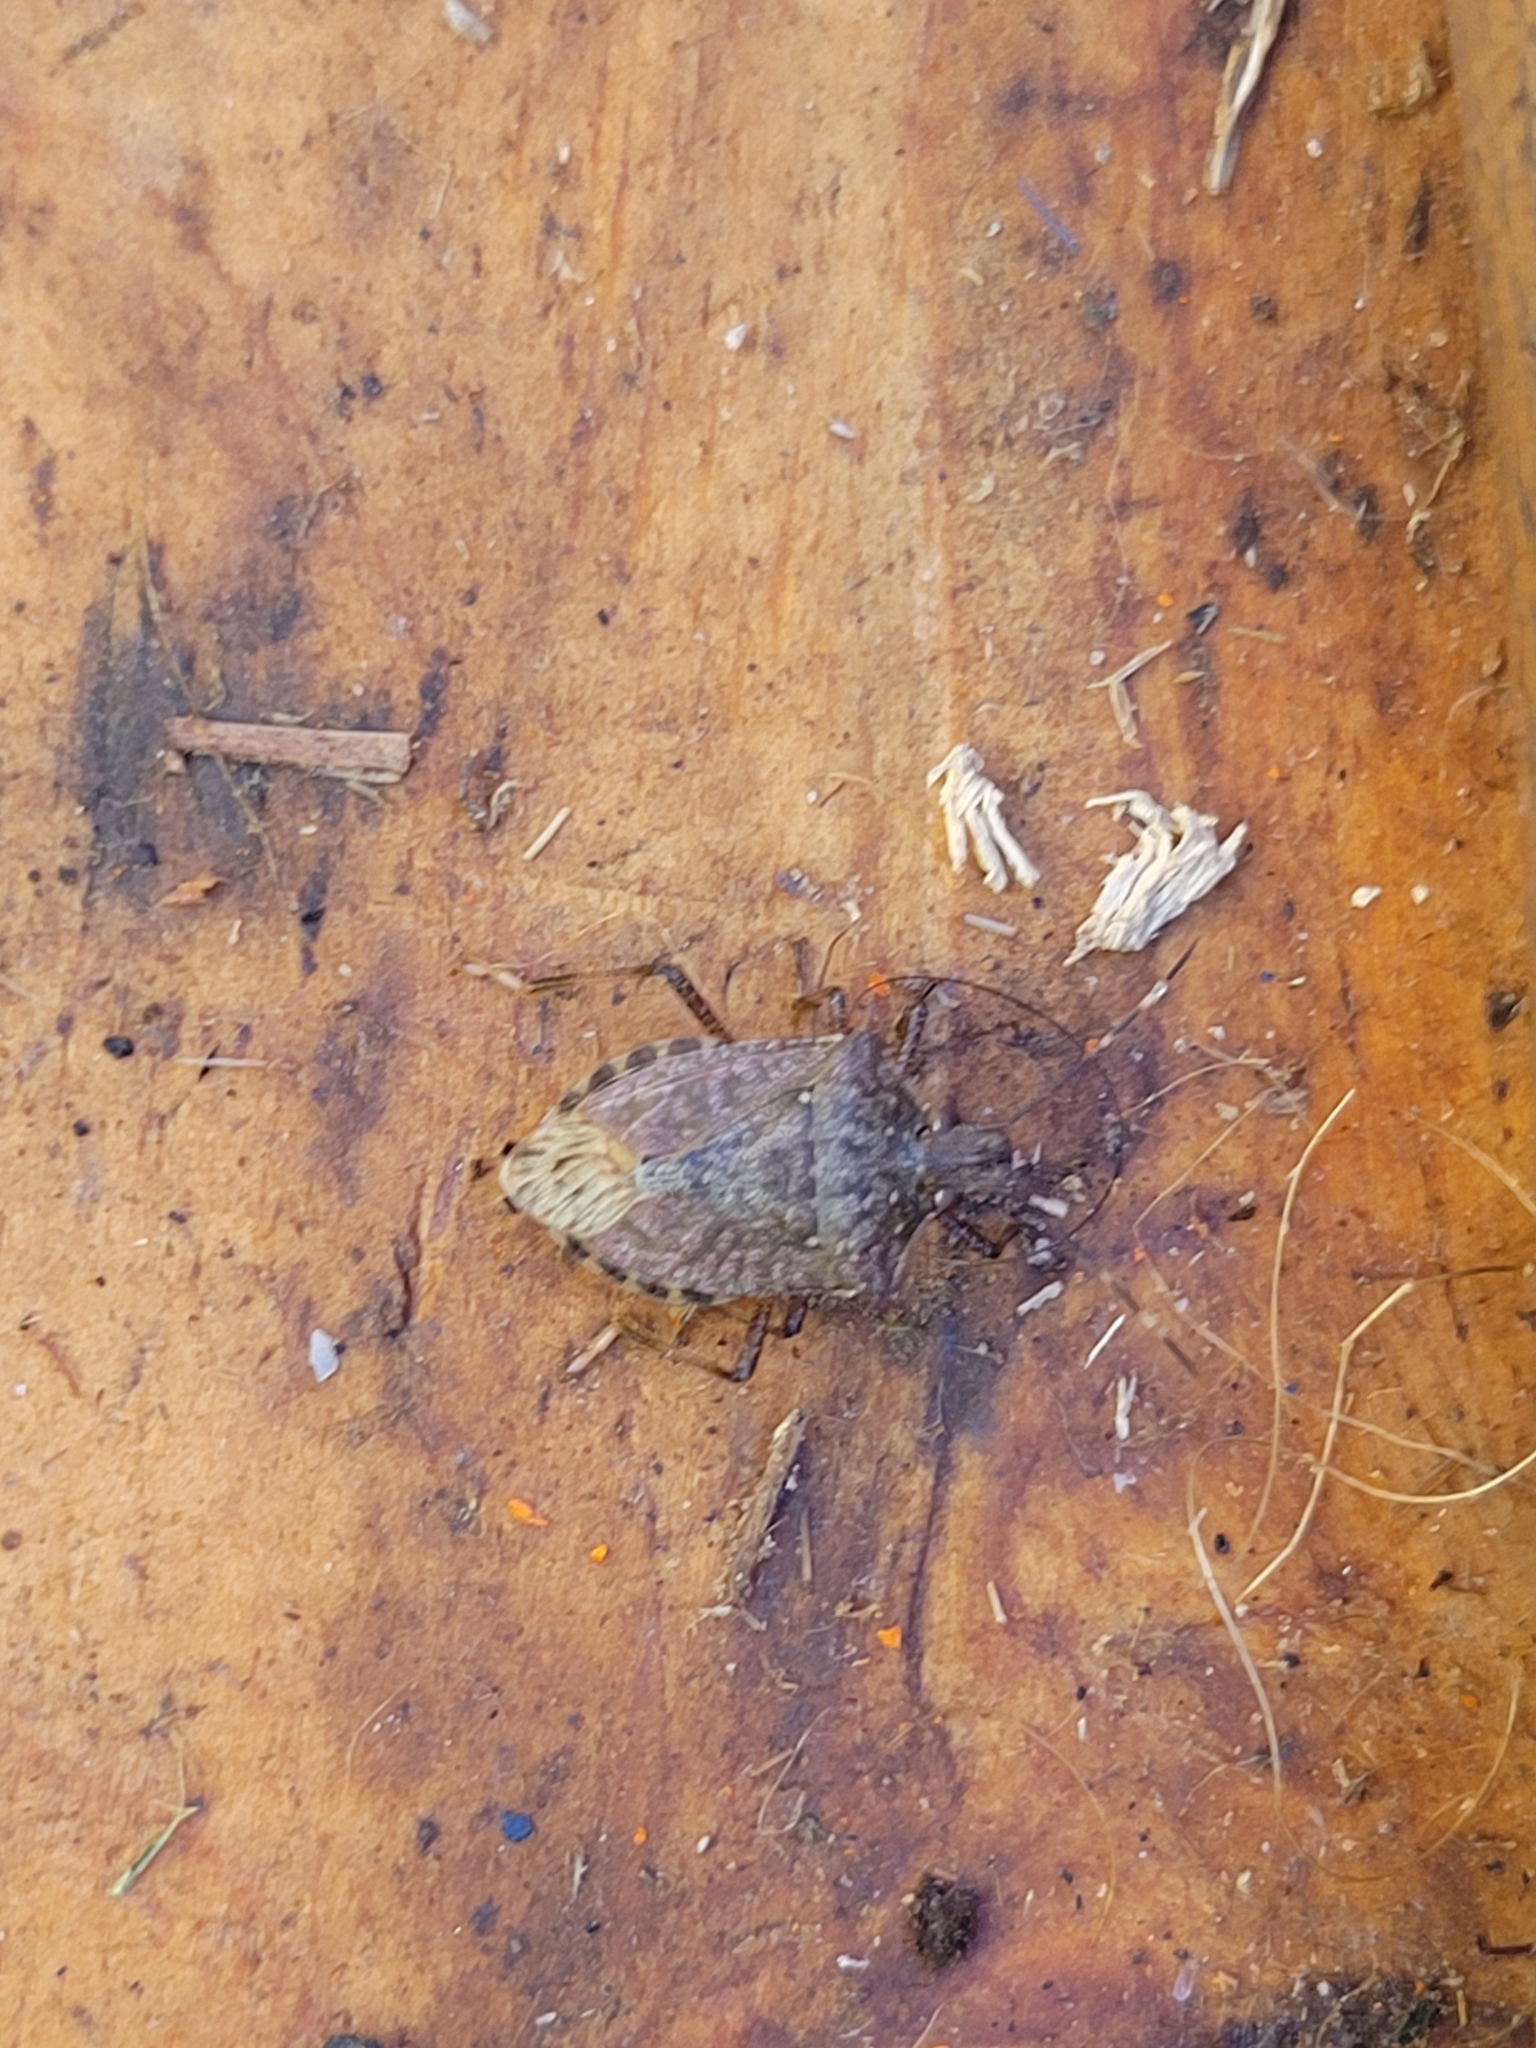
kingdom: Animalia
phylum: Arthropoda
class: Insecta
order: Hemiptera
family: Pentatomidae
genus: Halyomorpha
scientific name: Halyomorpha halys
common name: Brown marmorated stink bug
